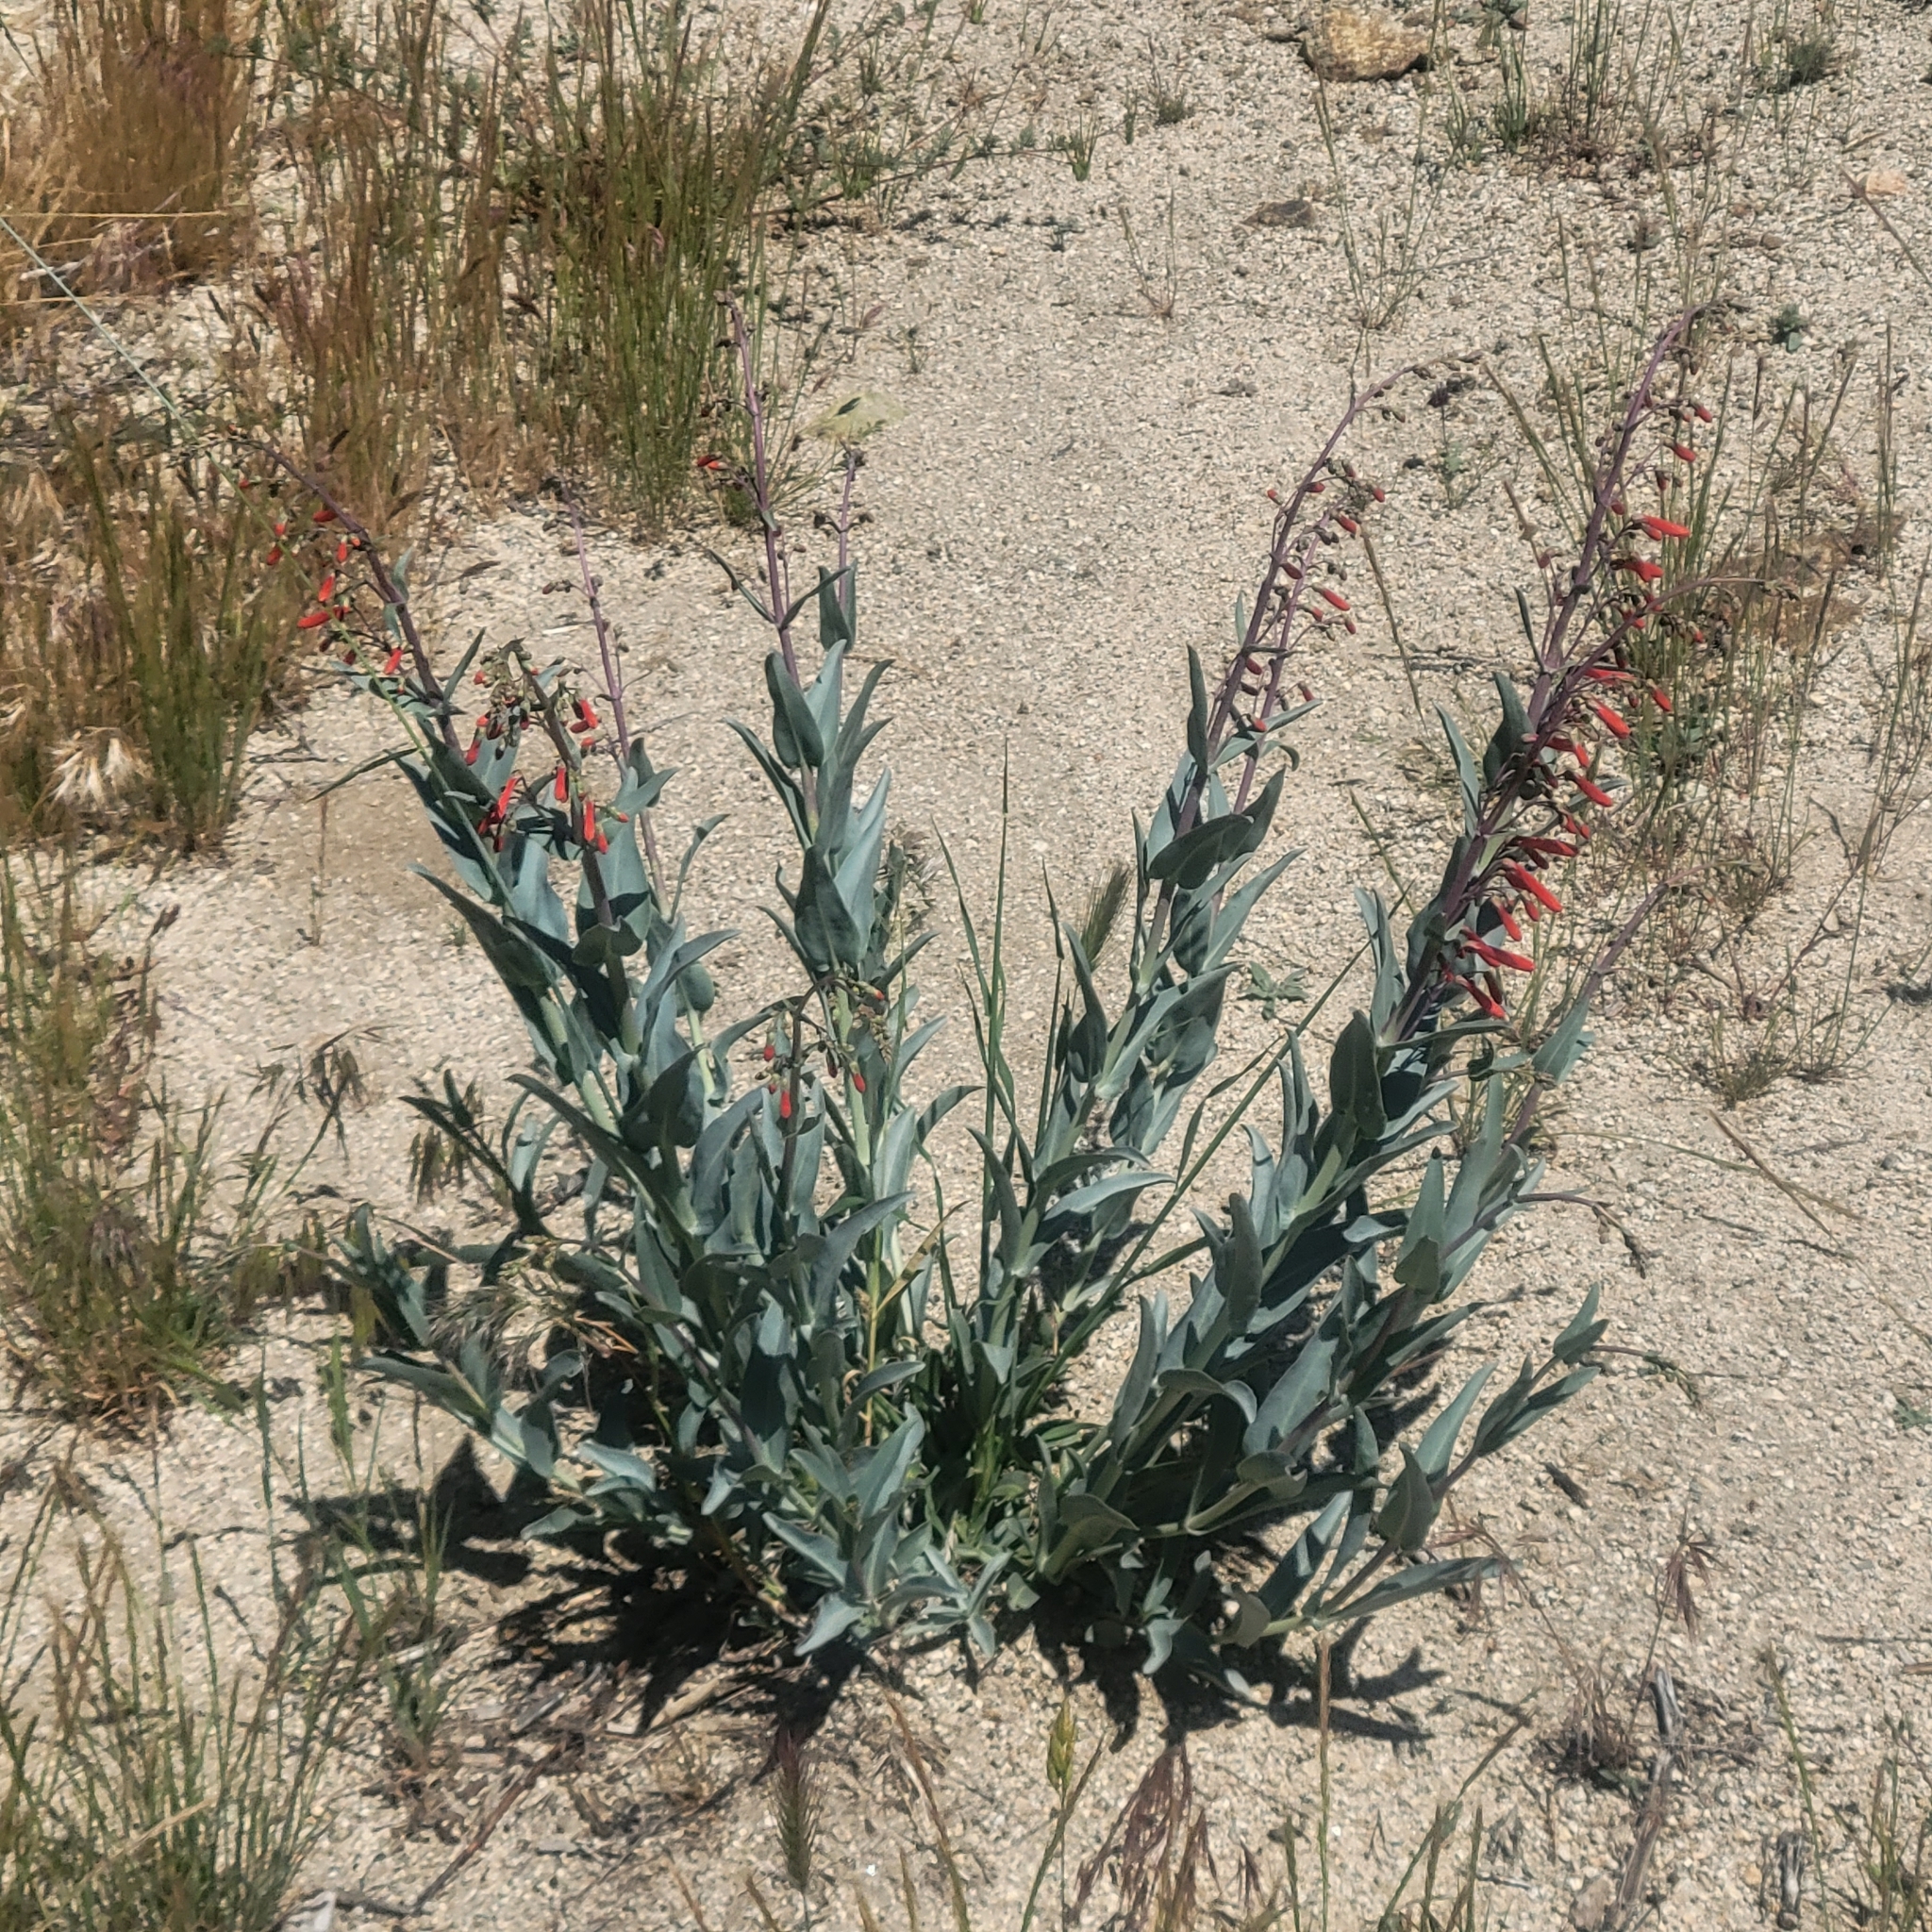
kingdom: Plantae
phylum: Tracheophyta
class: Magnoliopsida
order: Lamiales
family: Plantaginaceae
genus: Penstemon
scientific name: Penstemon centranthifolius
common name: Scarlet bugler
